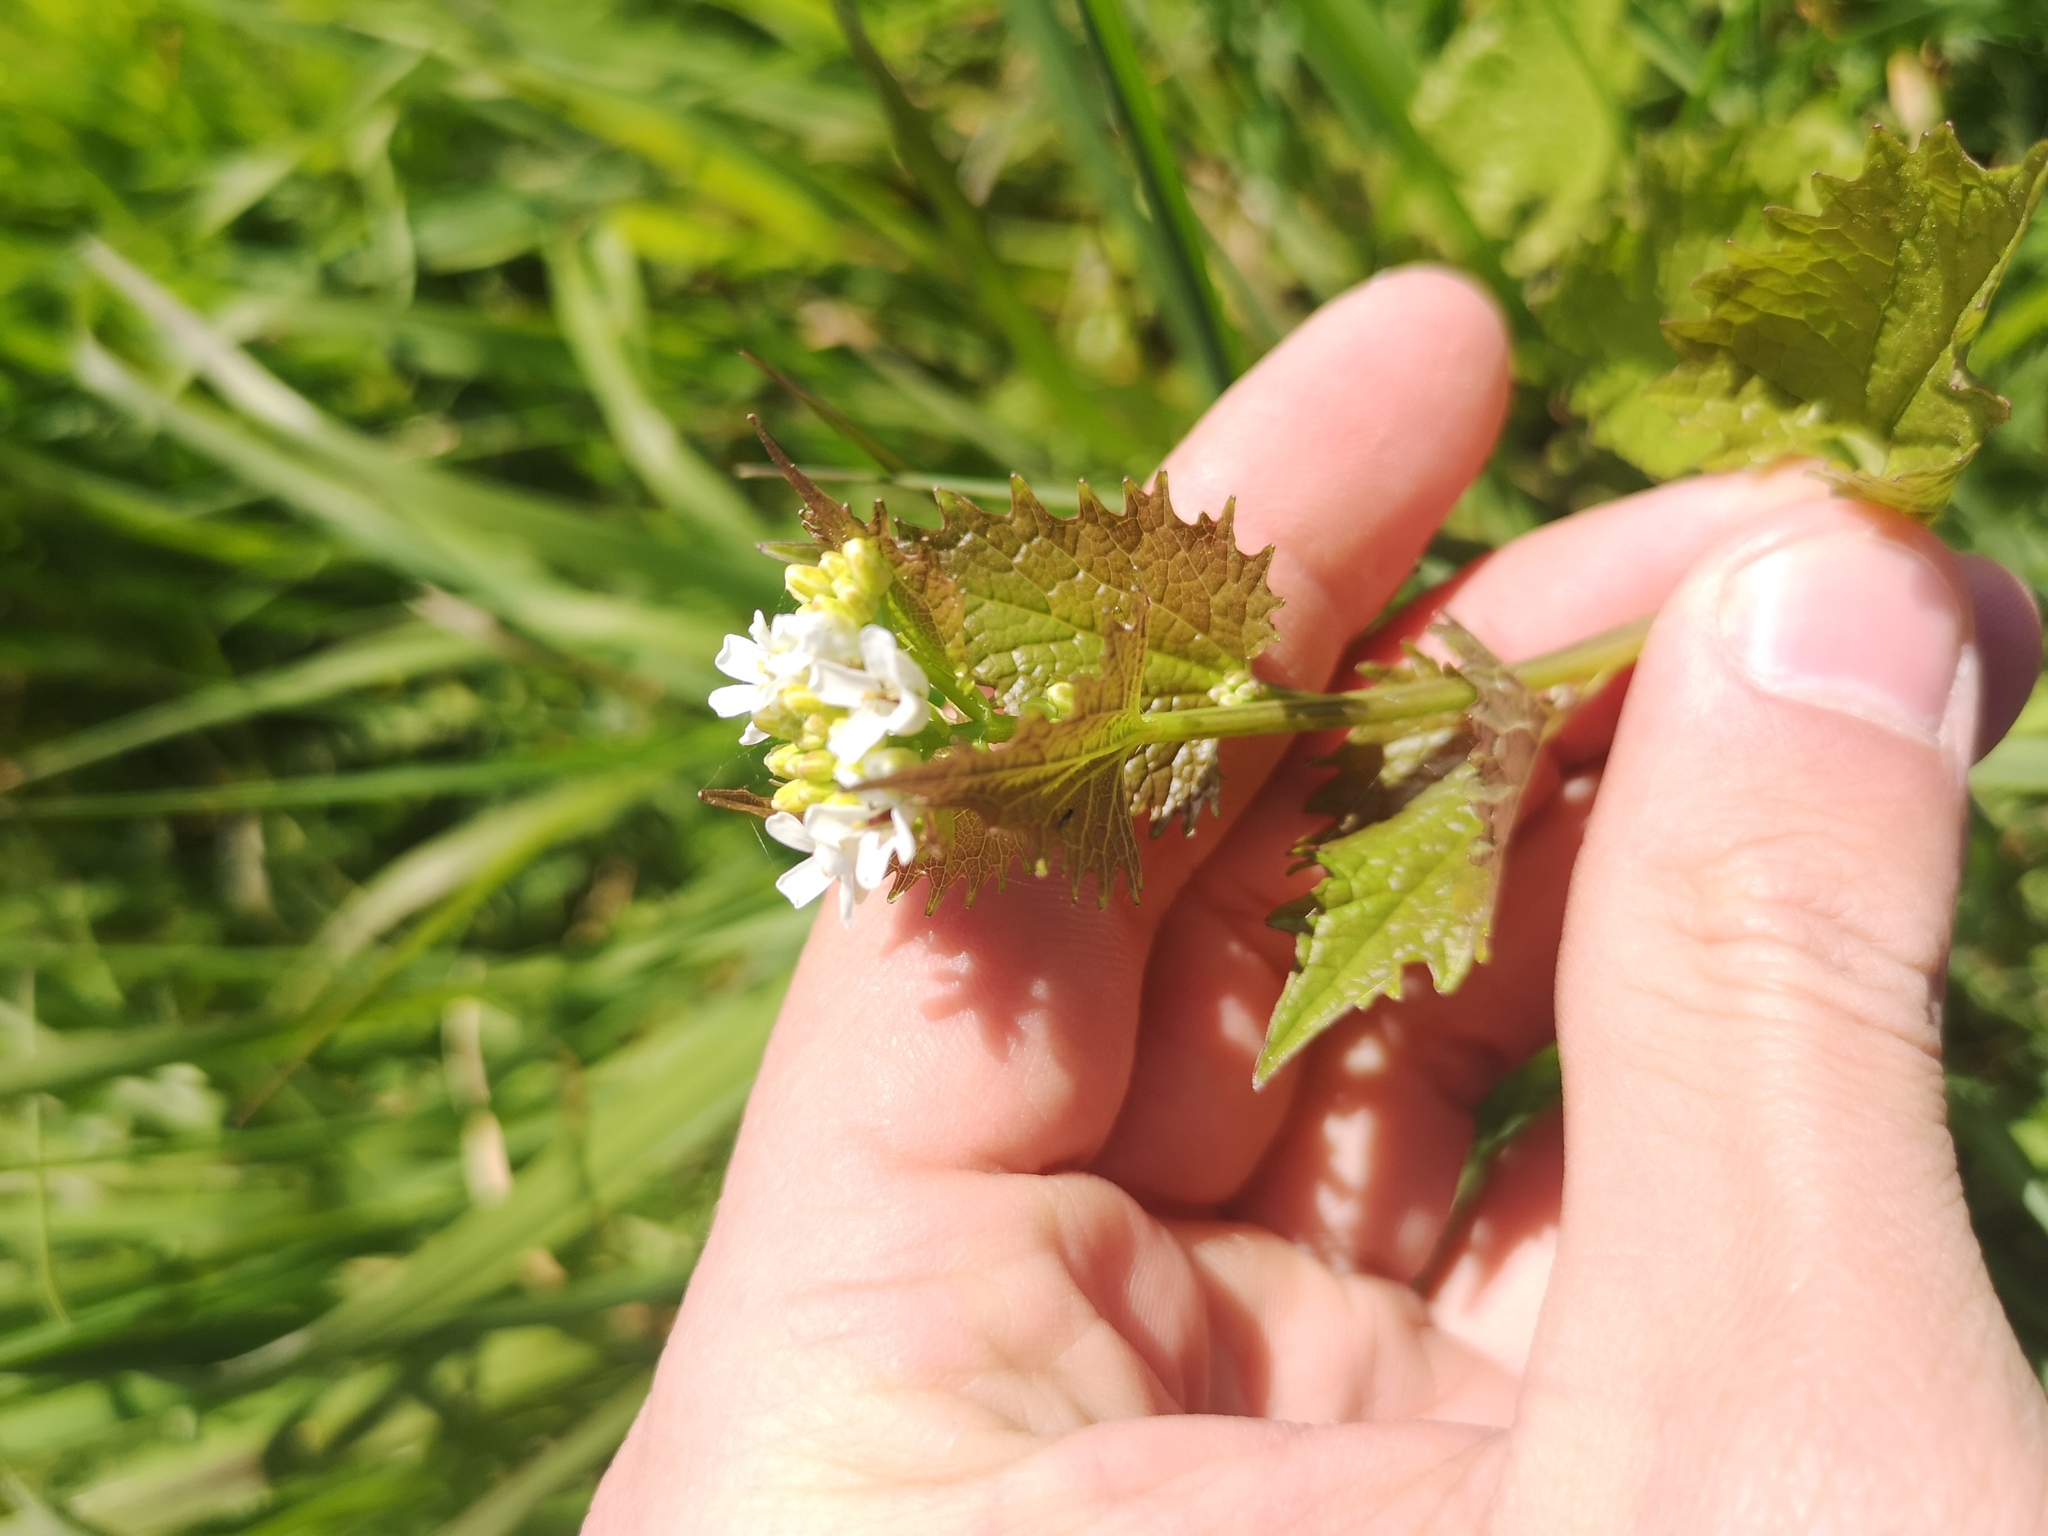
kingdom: Plantae
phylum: Tracheophyta
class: Magnoliopsida
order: Brassicales
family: Brassicaceae
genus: Alliaria
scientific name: Alliaria petiolata
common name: Garlic mustard
